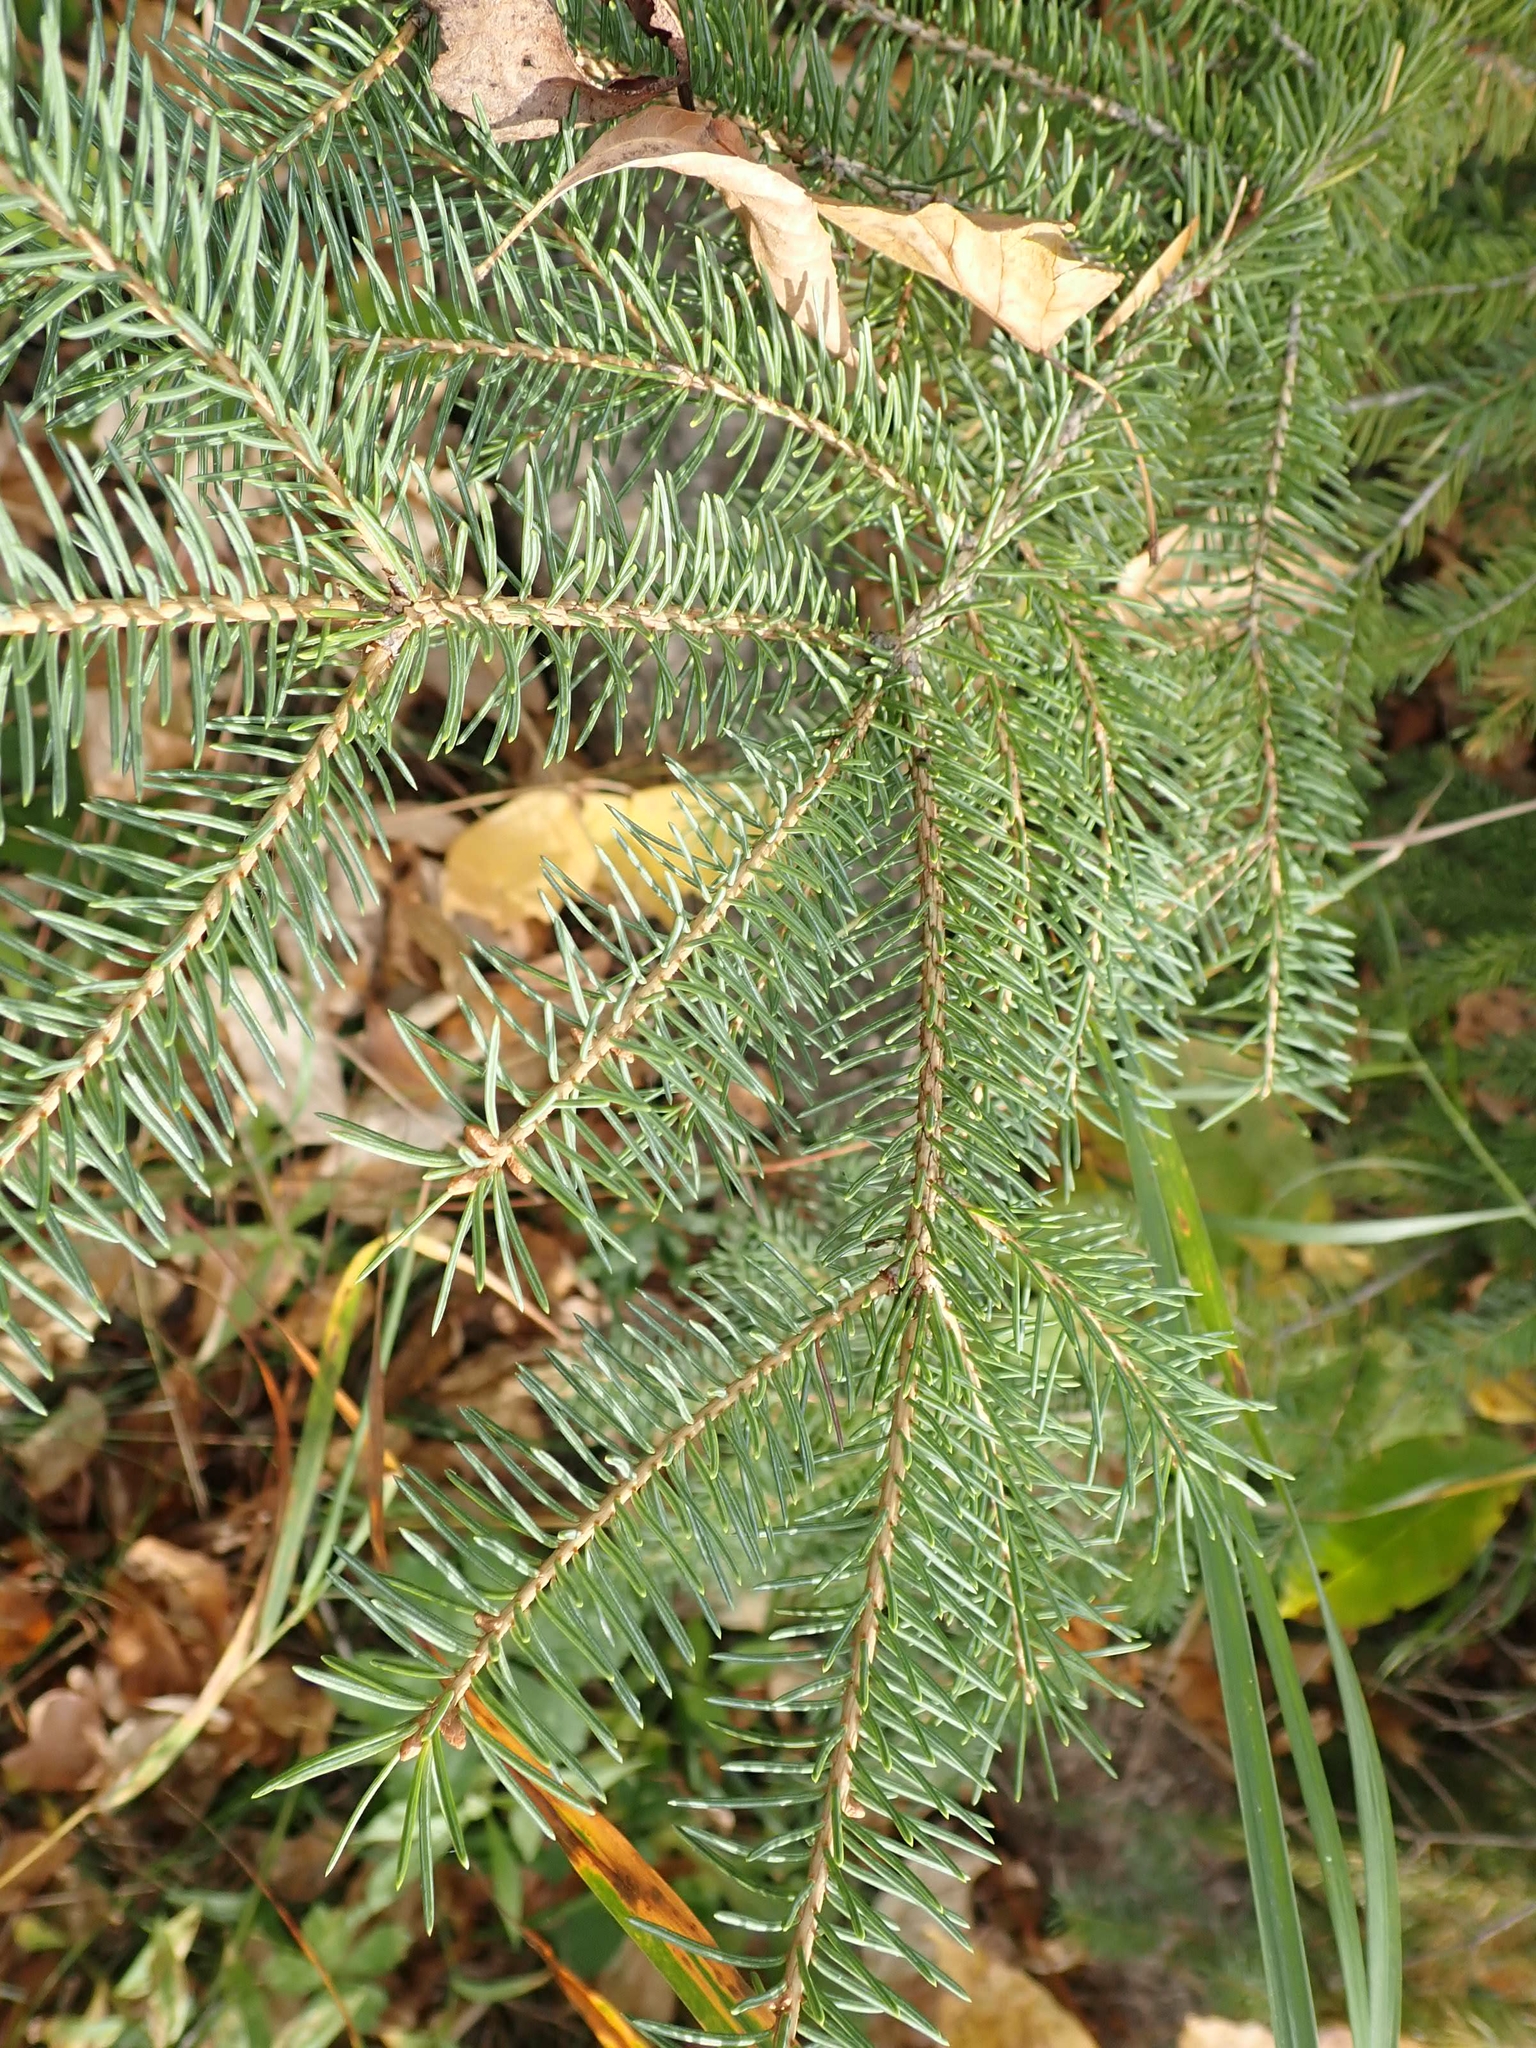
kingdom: Plantae
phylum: Tracheophyta
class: Pinopsida
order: Pinales
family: Pinaceae
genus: Picea
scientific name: Picea glauca
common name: White spruce
